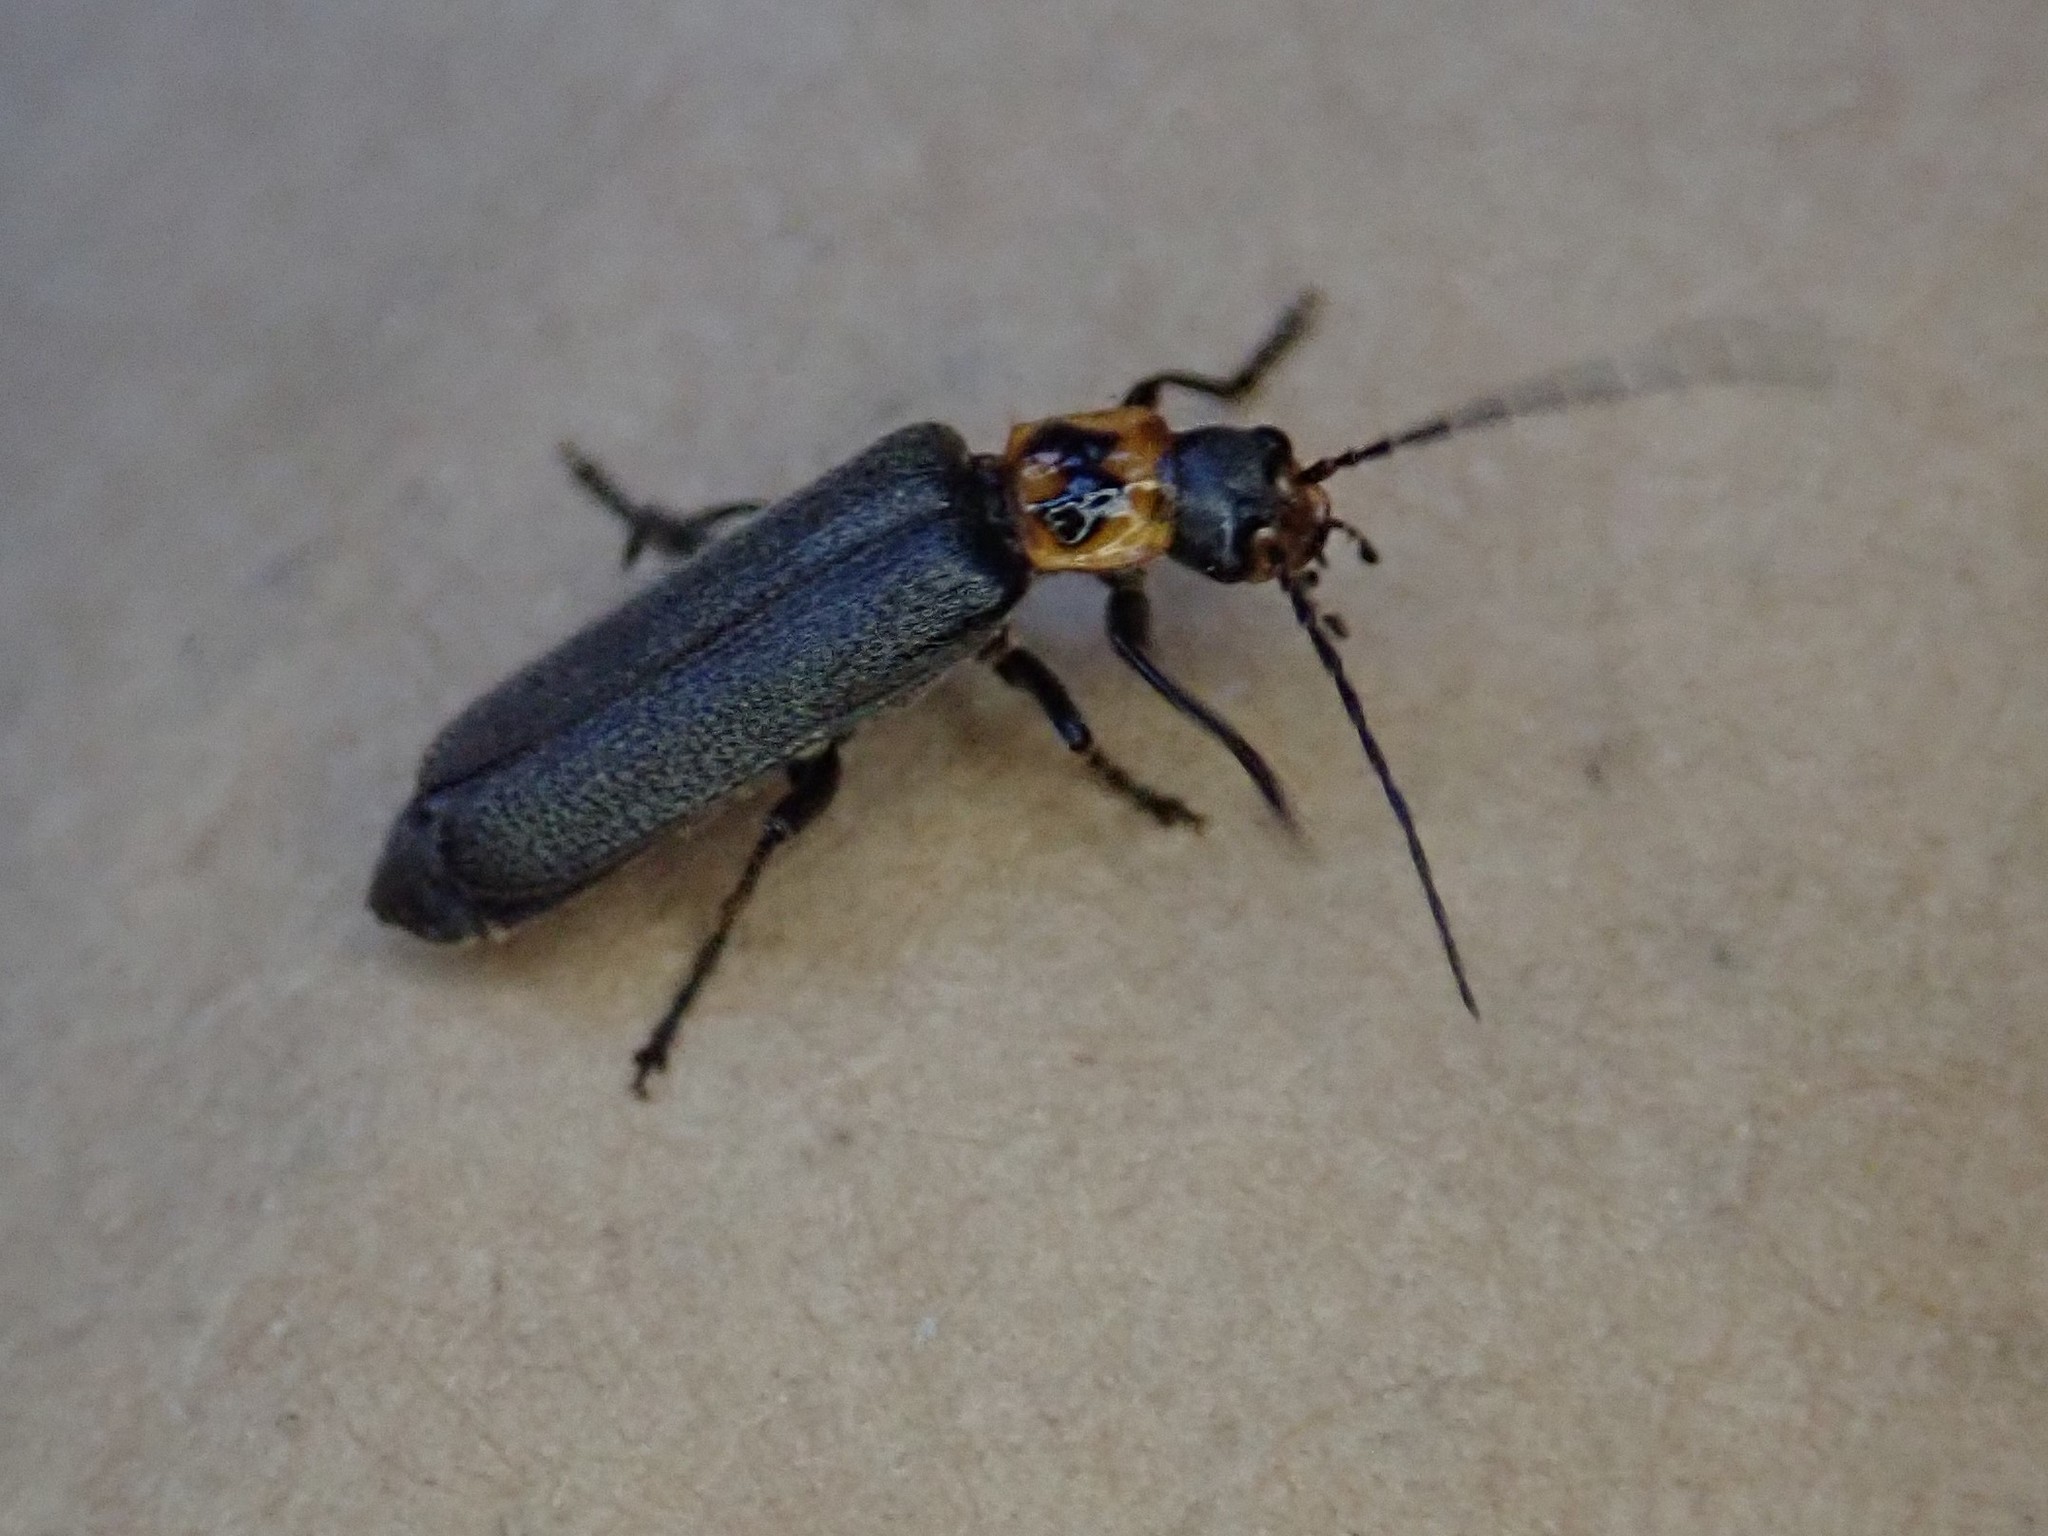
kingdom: Animalia
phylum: Arthropoda
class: Insecta
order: Coleoptera
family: Cantharidae
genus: Cyrtomoptera
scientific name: Cyrtomoptera divisa
